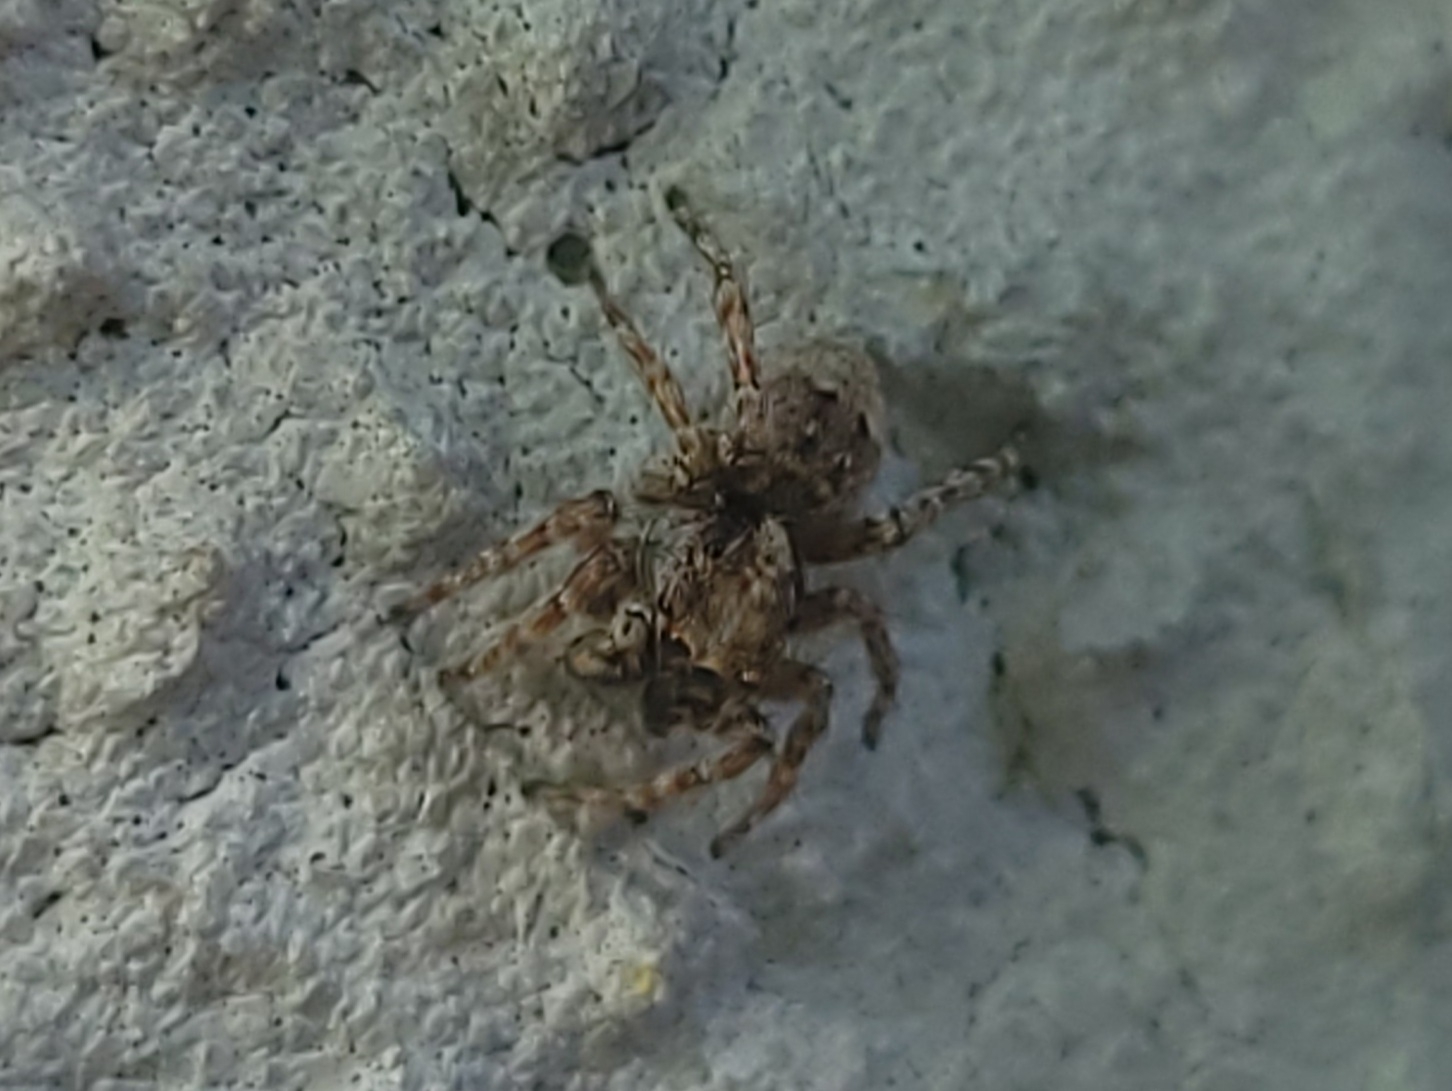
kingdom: Animalia
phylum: Arthropoda
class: Arachnida
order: Araneae
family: Salticidae
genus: Attulus
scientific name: Attulus fasciger
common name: Asiatic wall jumping spider
